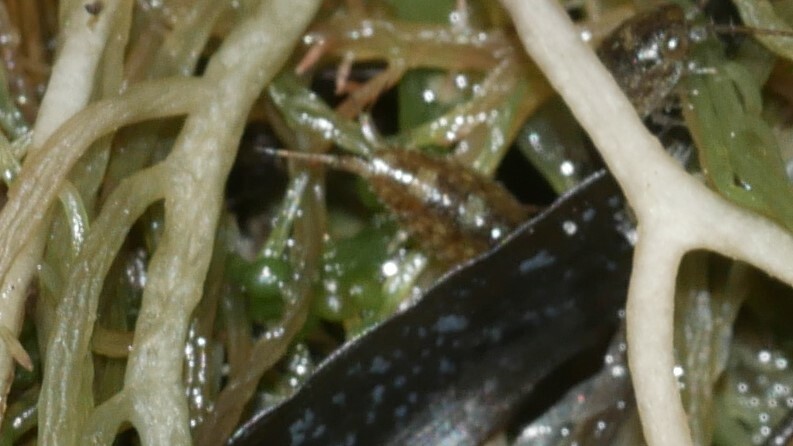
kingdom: Animalia
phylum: Arthropoda
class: Malacostraca
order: Isopoda
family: Ligiidae
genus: Ligia
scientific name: Ligia exotica
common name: Wharf roach
